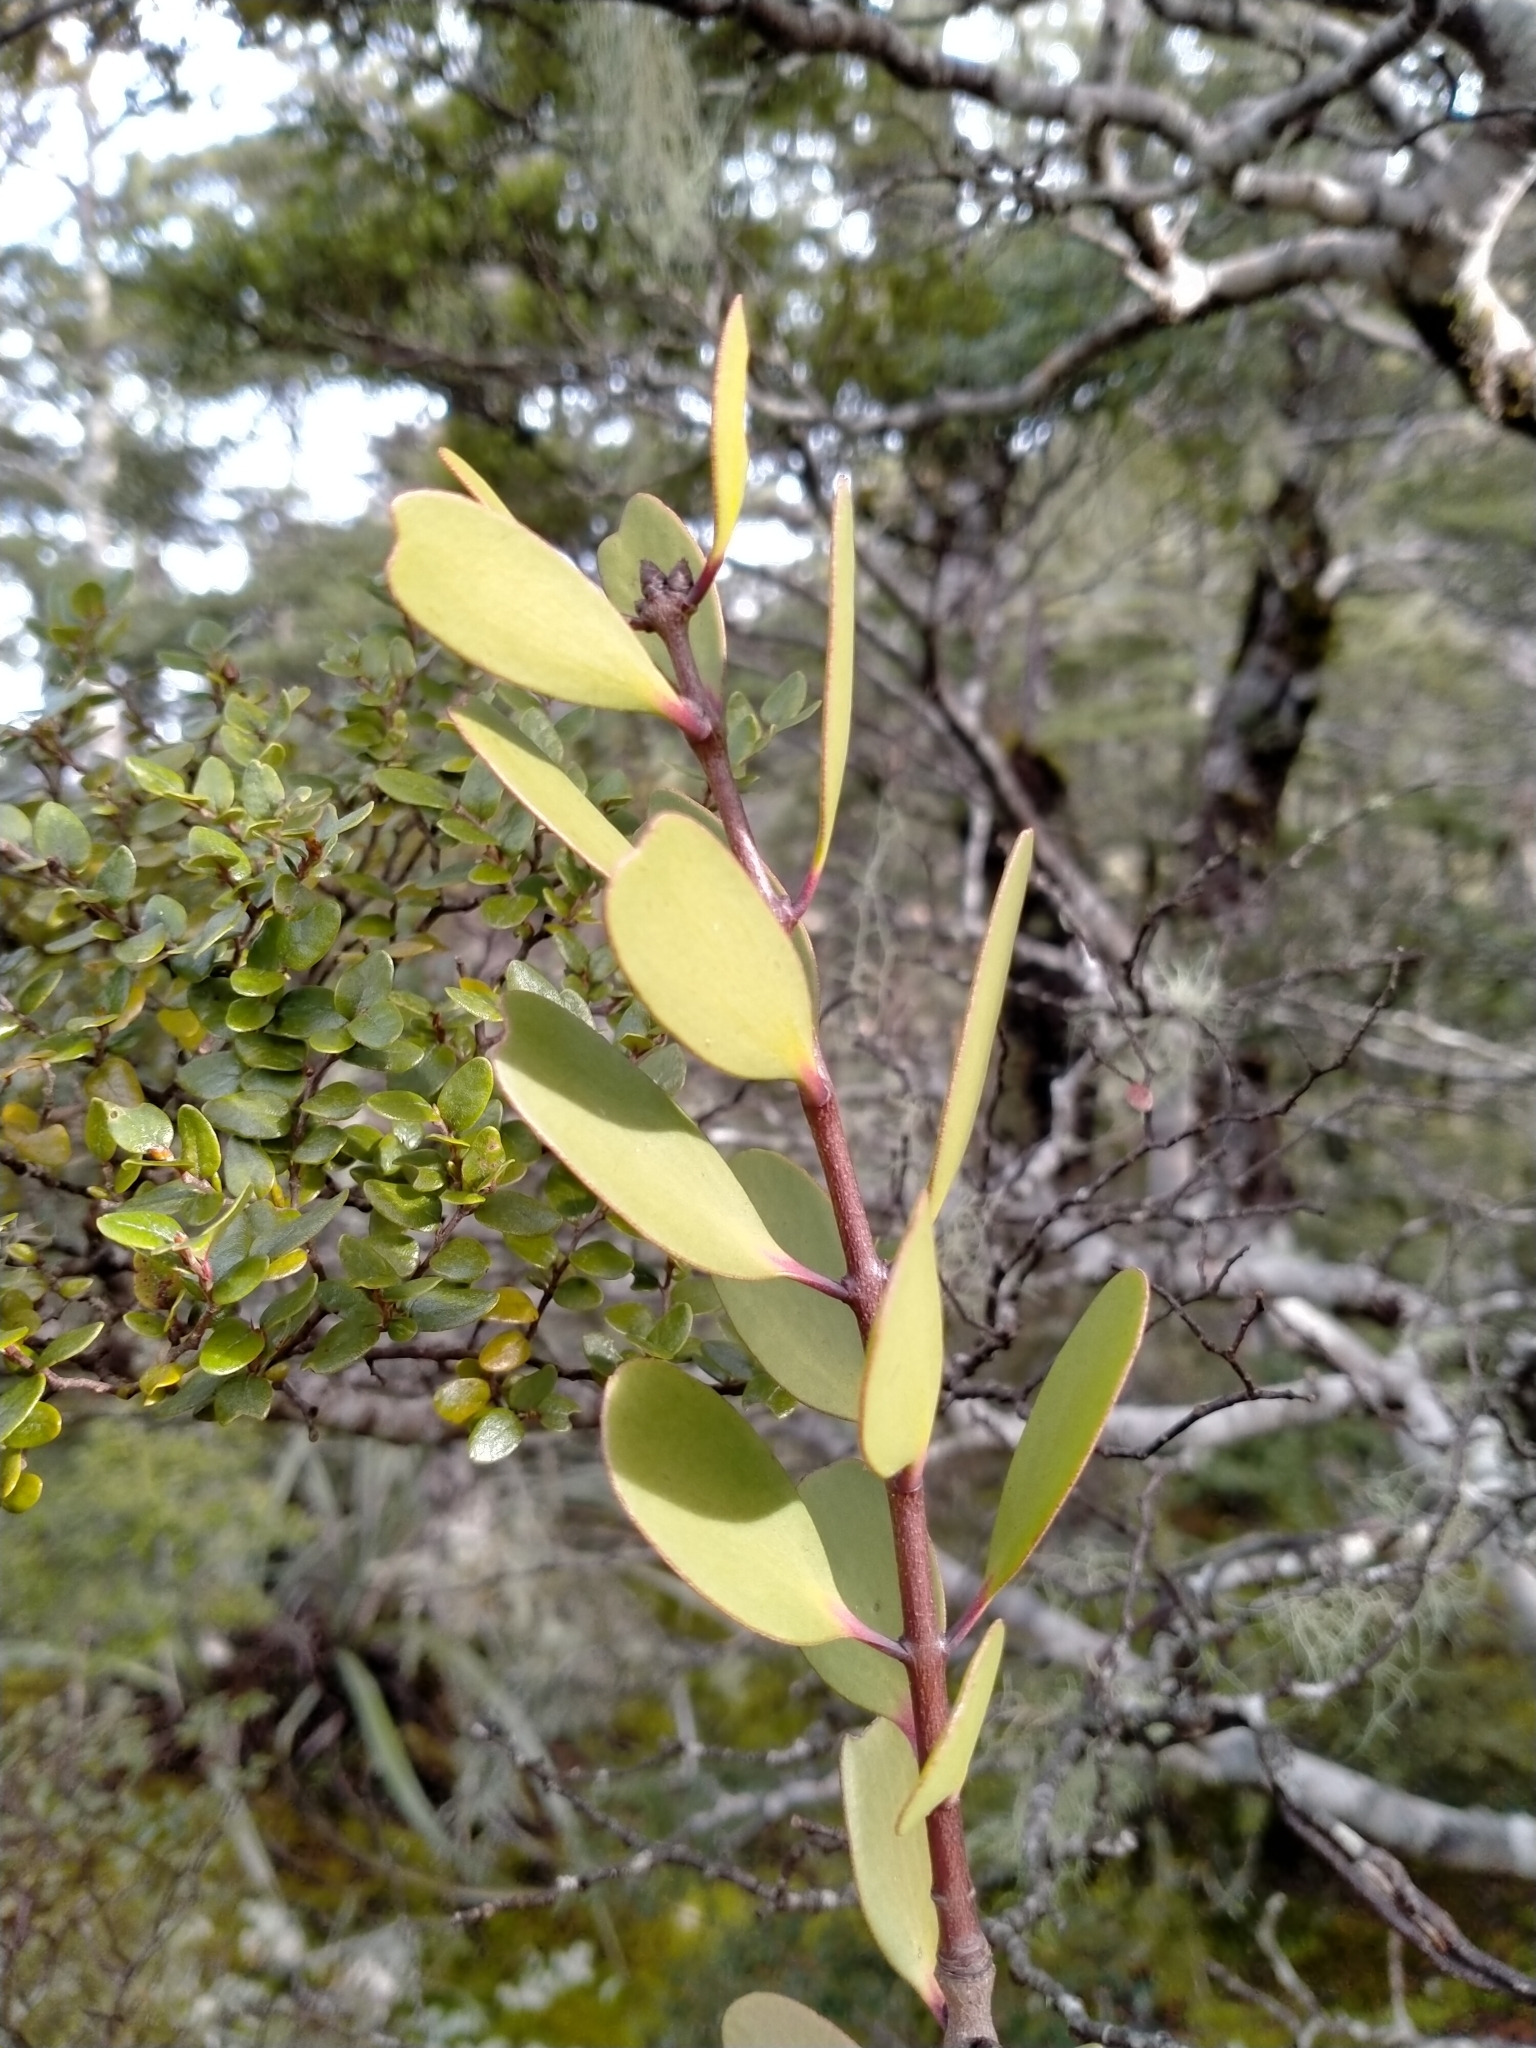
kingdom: Plantae
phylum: Tracheophyta
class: Magnoliopsida
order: Santalales
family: Loranthaceae
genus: Alepis
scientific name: Alepis flavida
